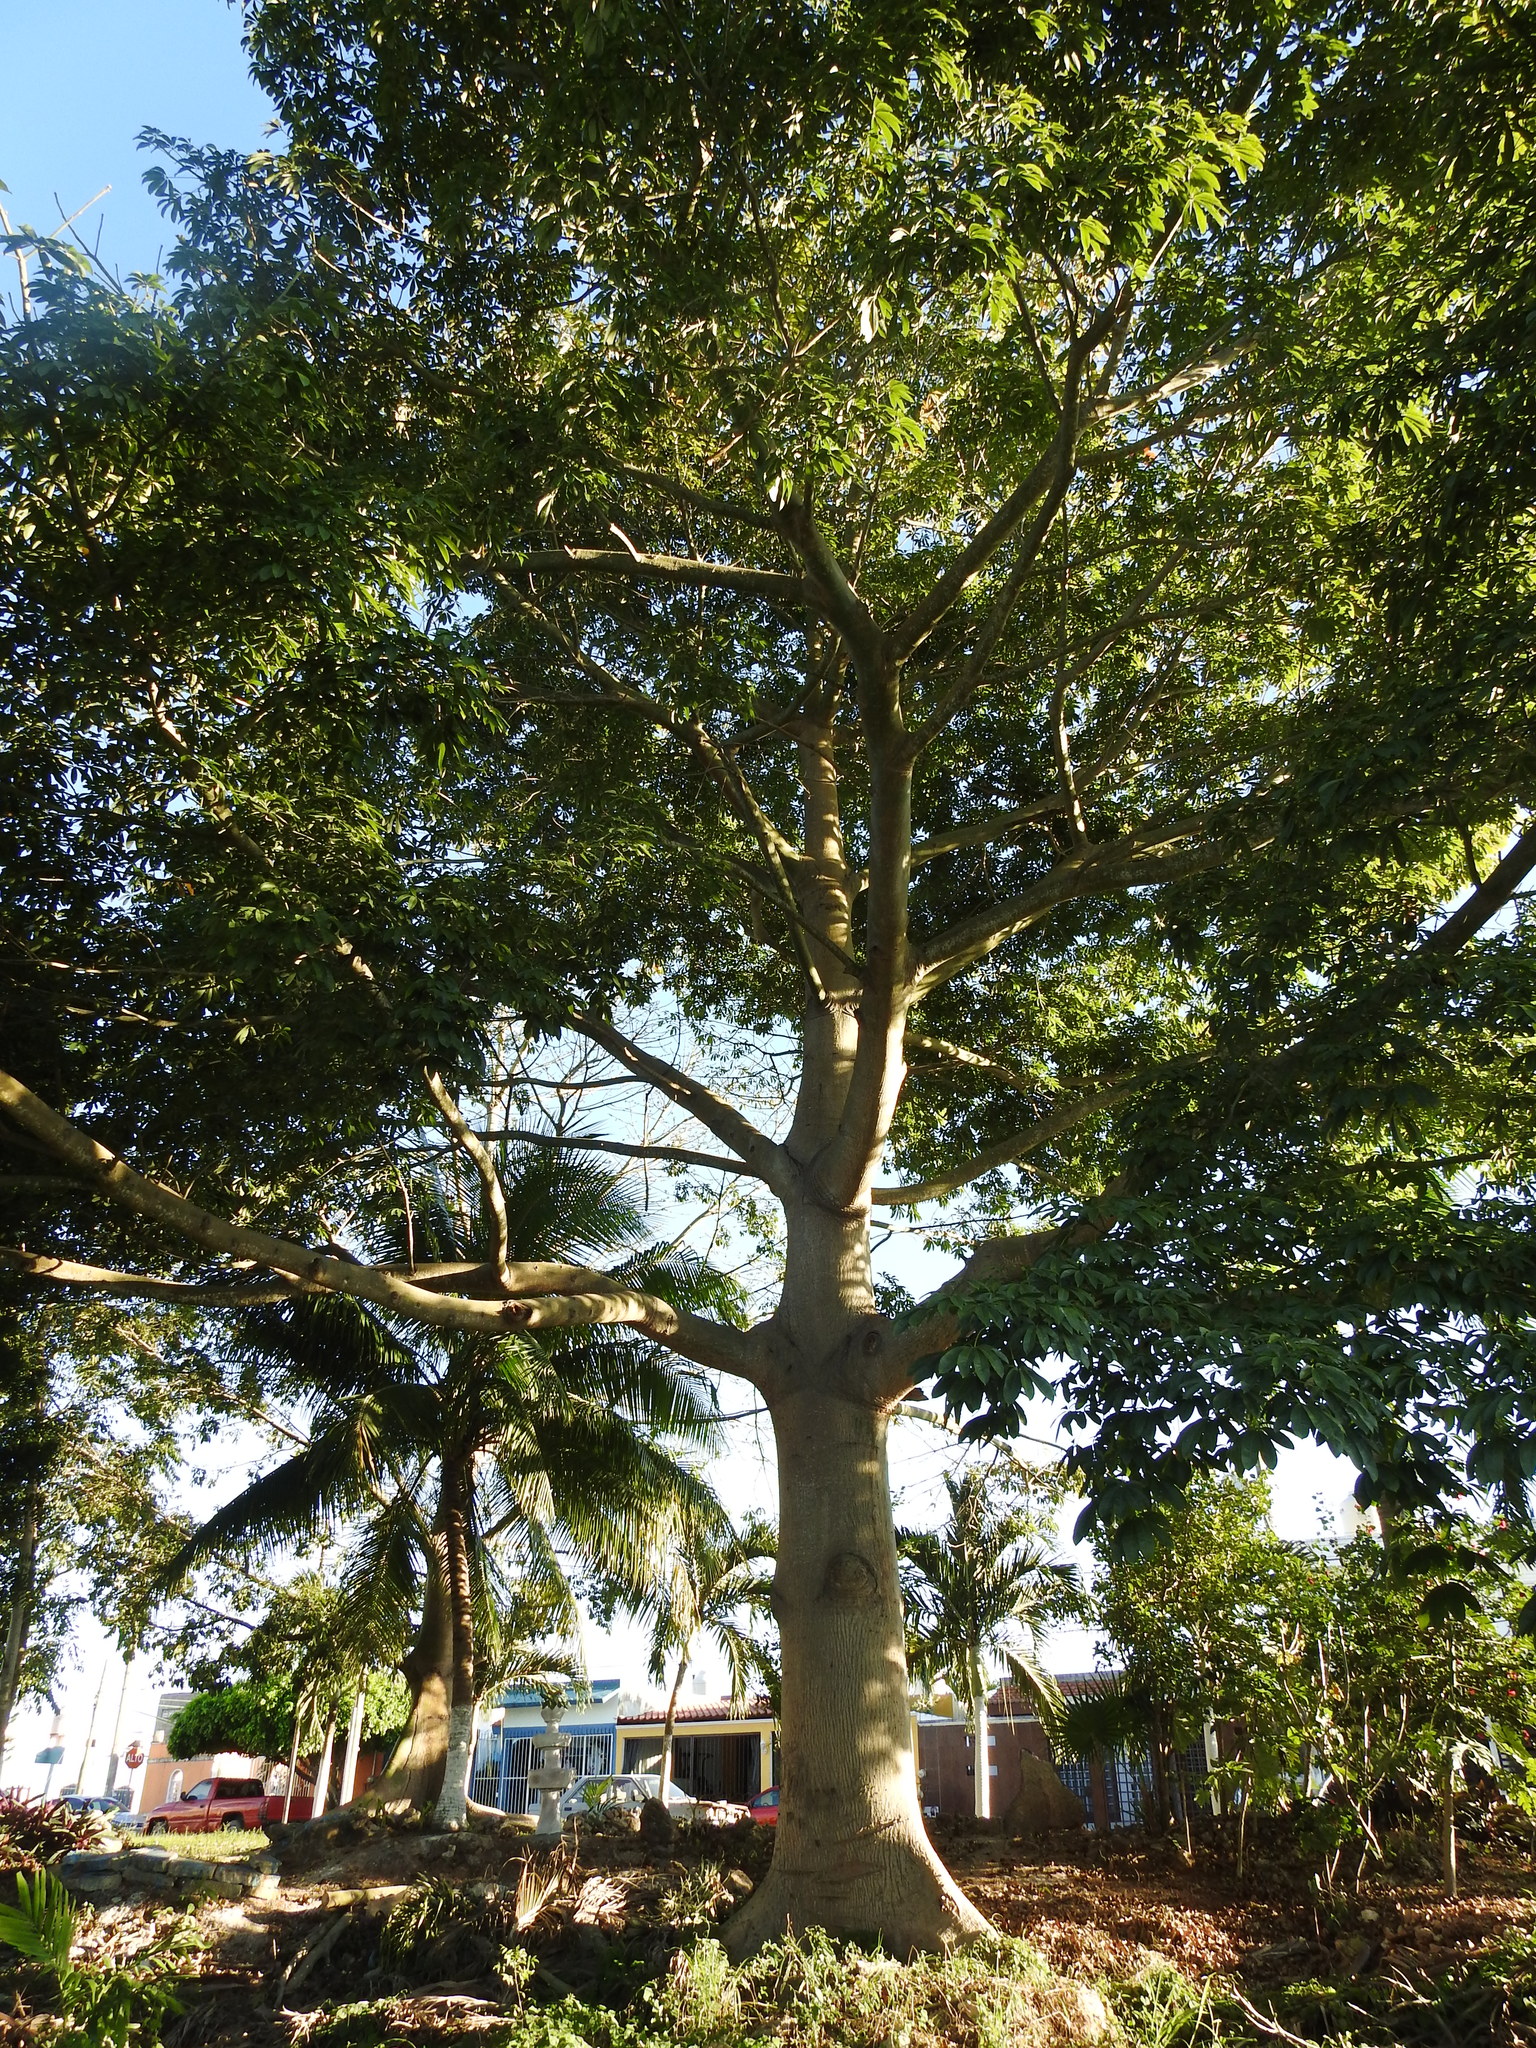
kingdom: Plantae
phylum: Tracheophyta
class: Magnoliopsida
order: Malvales
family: Malvaceae
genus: Ceiba
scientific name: Ceiba pentandra
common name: Kapok
